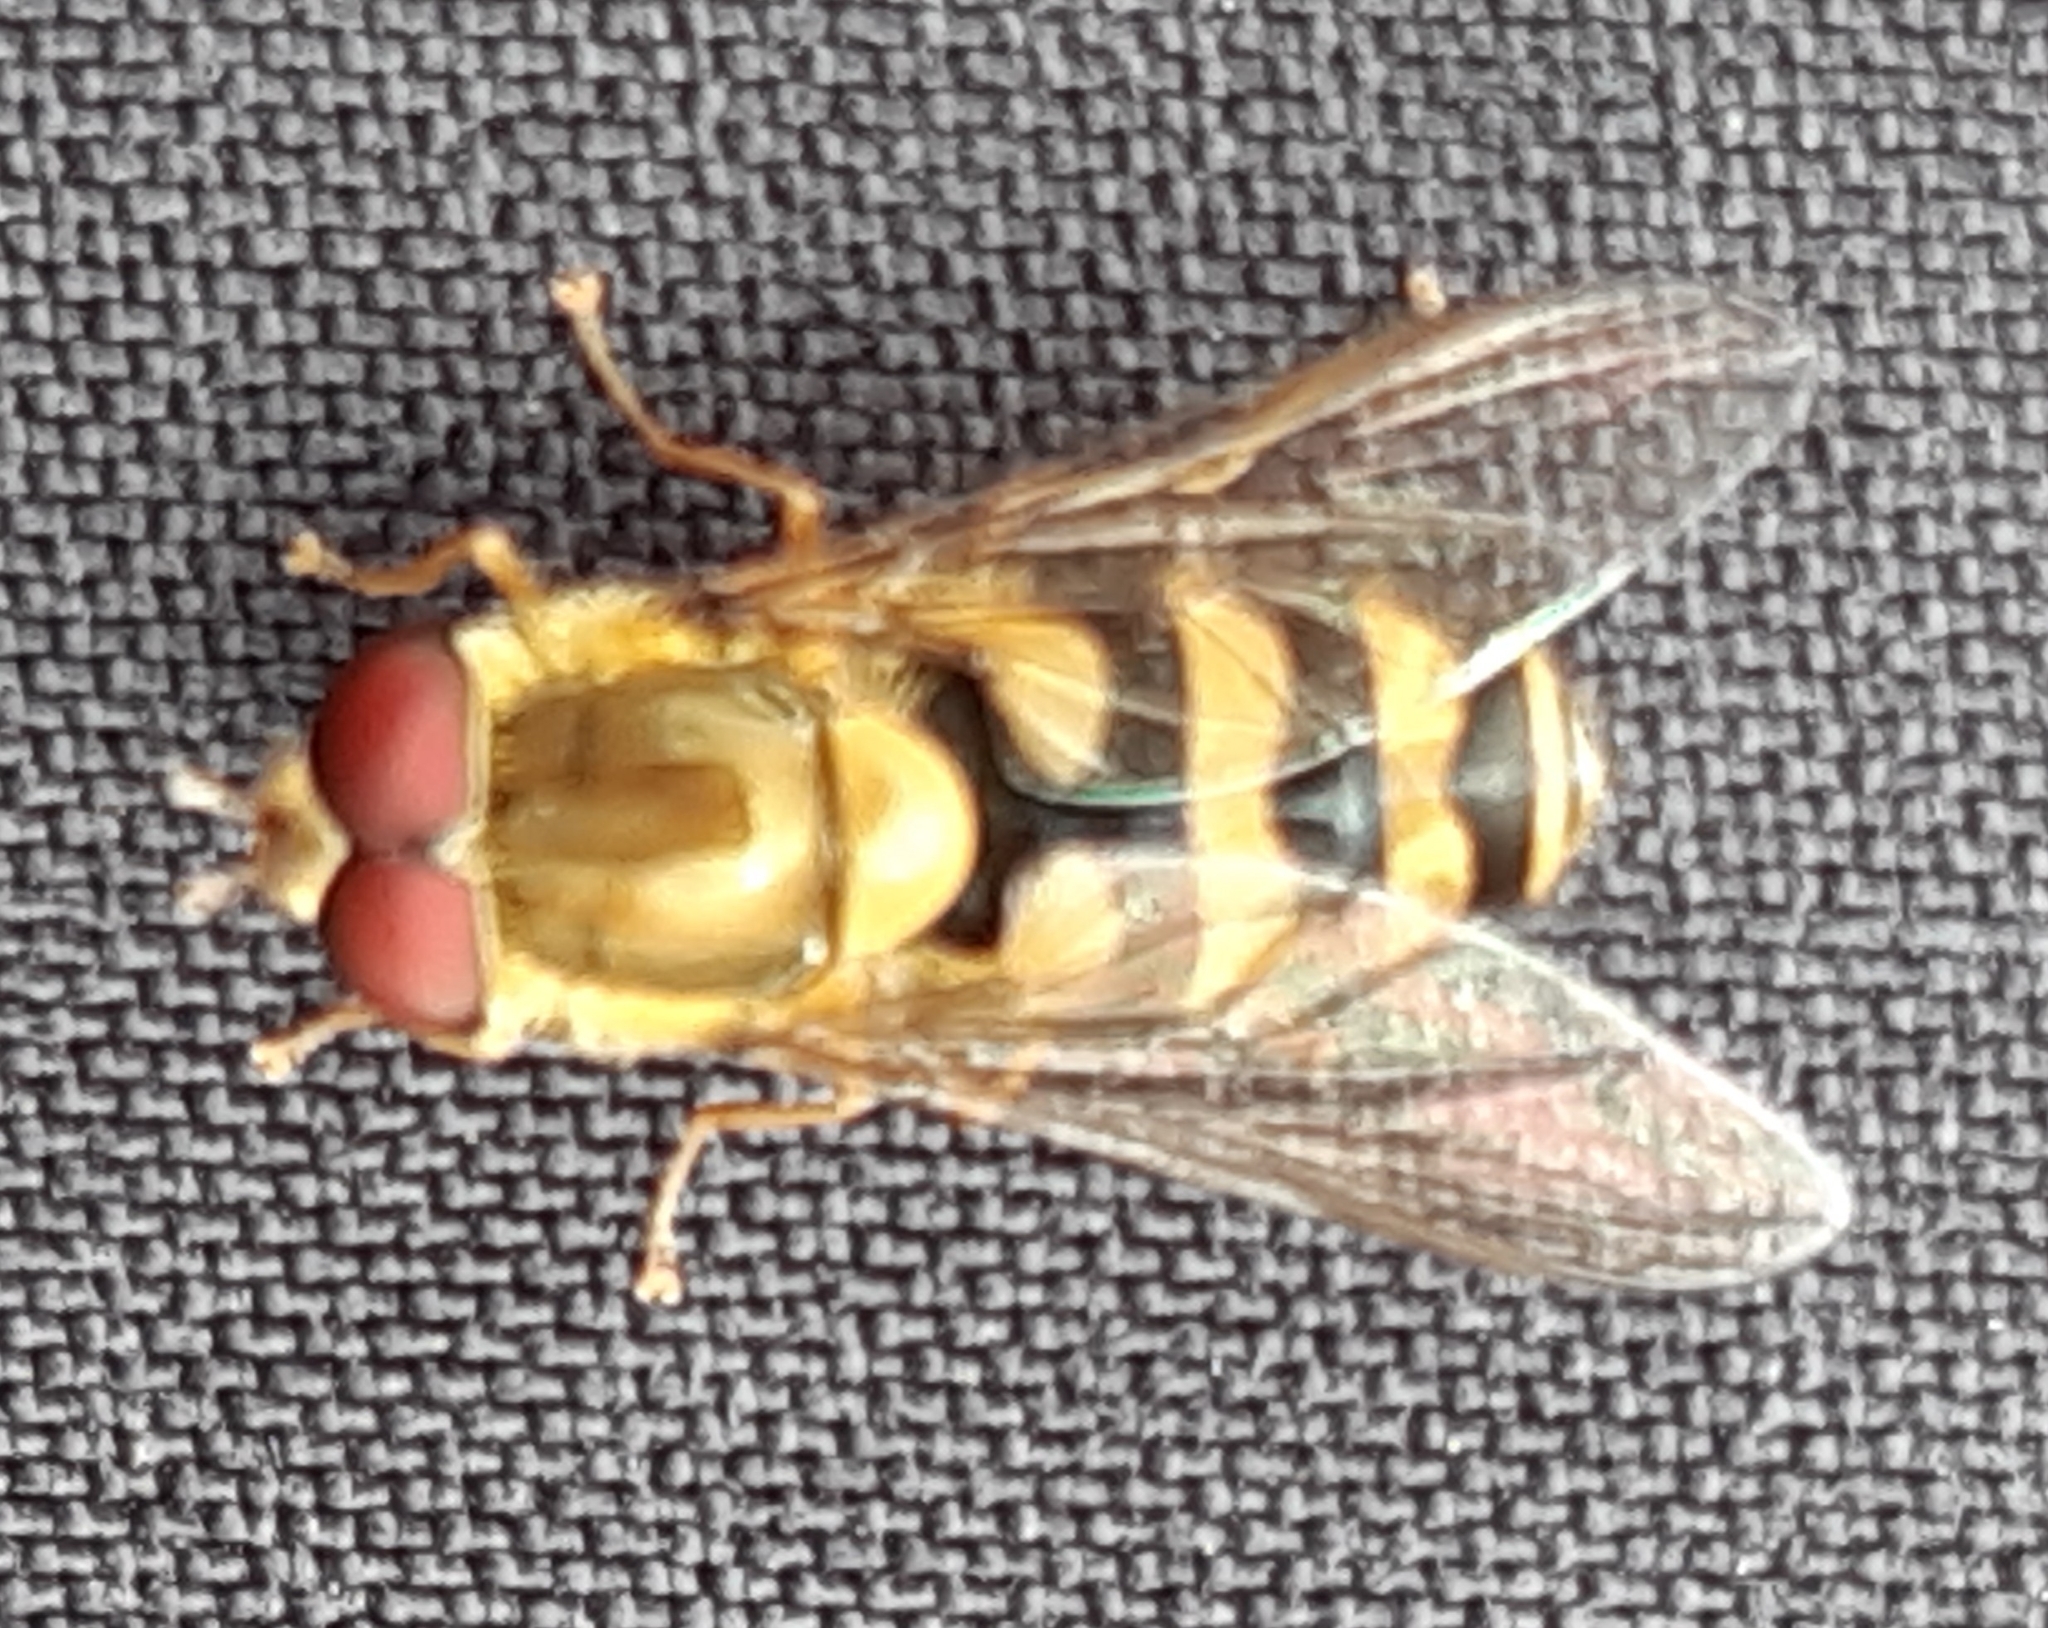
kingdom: Animalia
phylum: Arthropoda
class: Insecta
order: Diptera
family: Syrphidae
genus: Syrphus
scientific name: Syrphus
